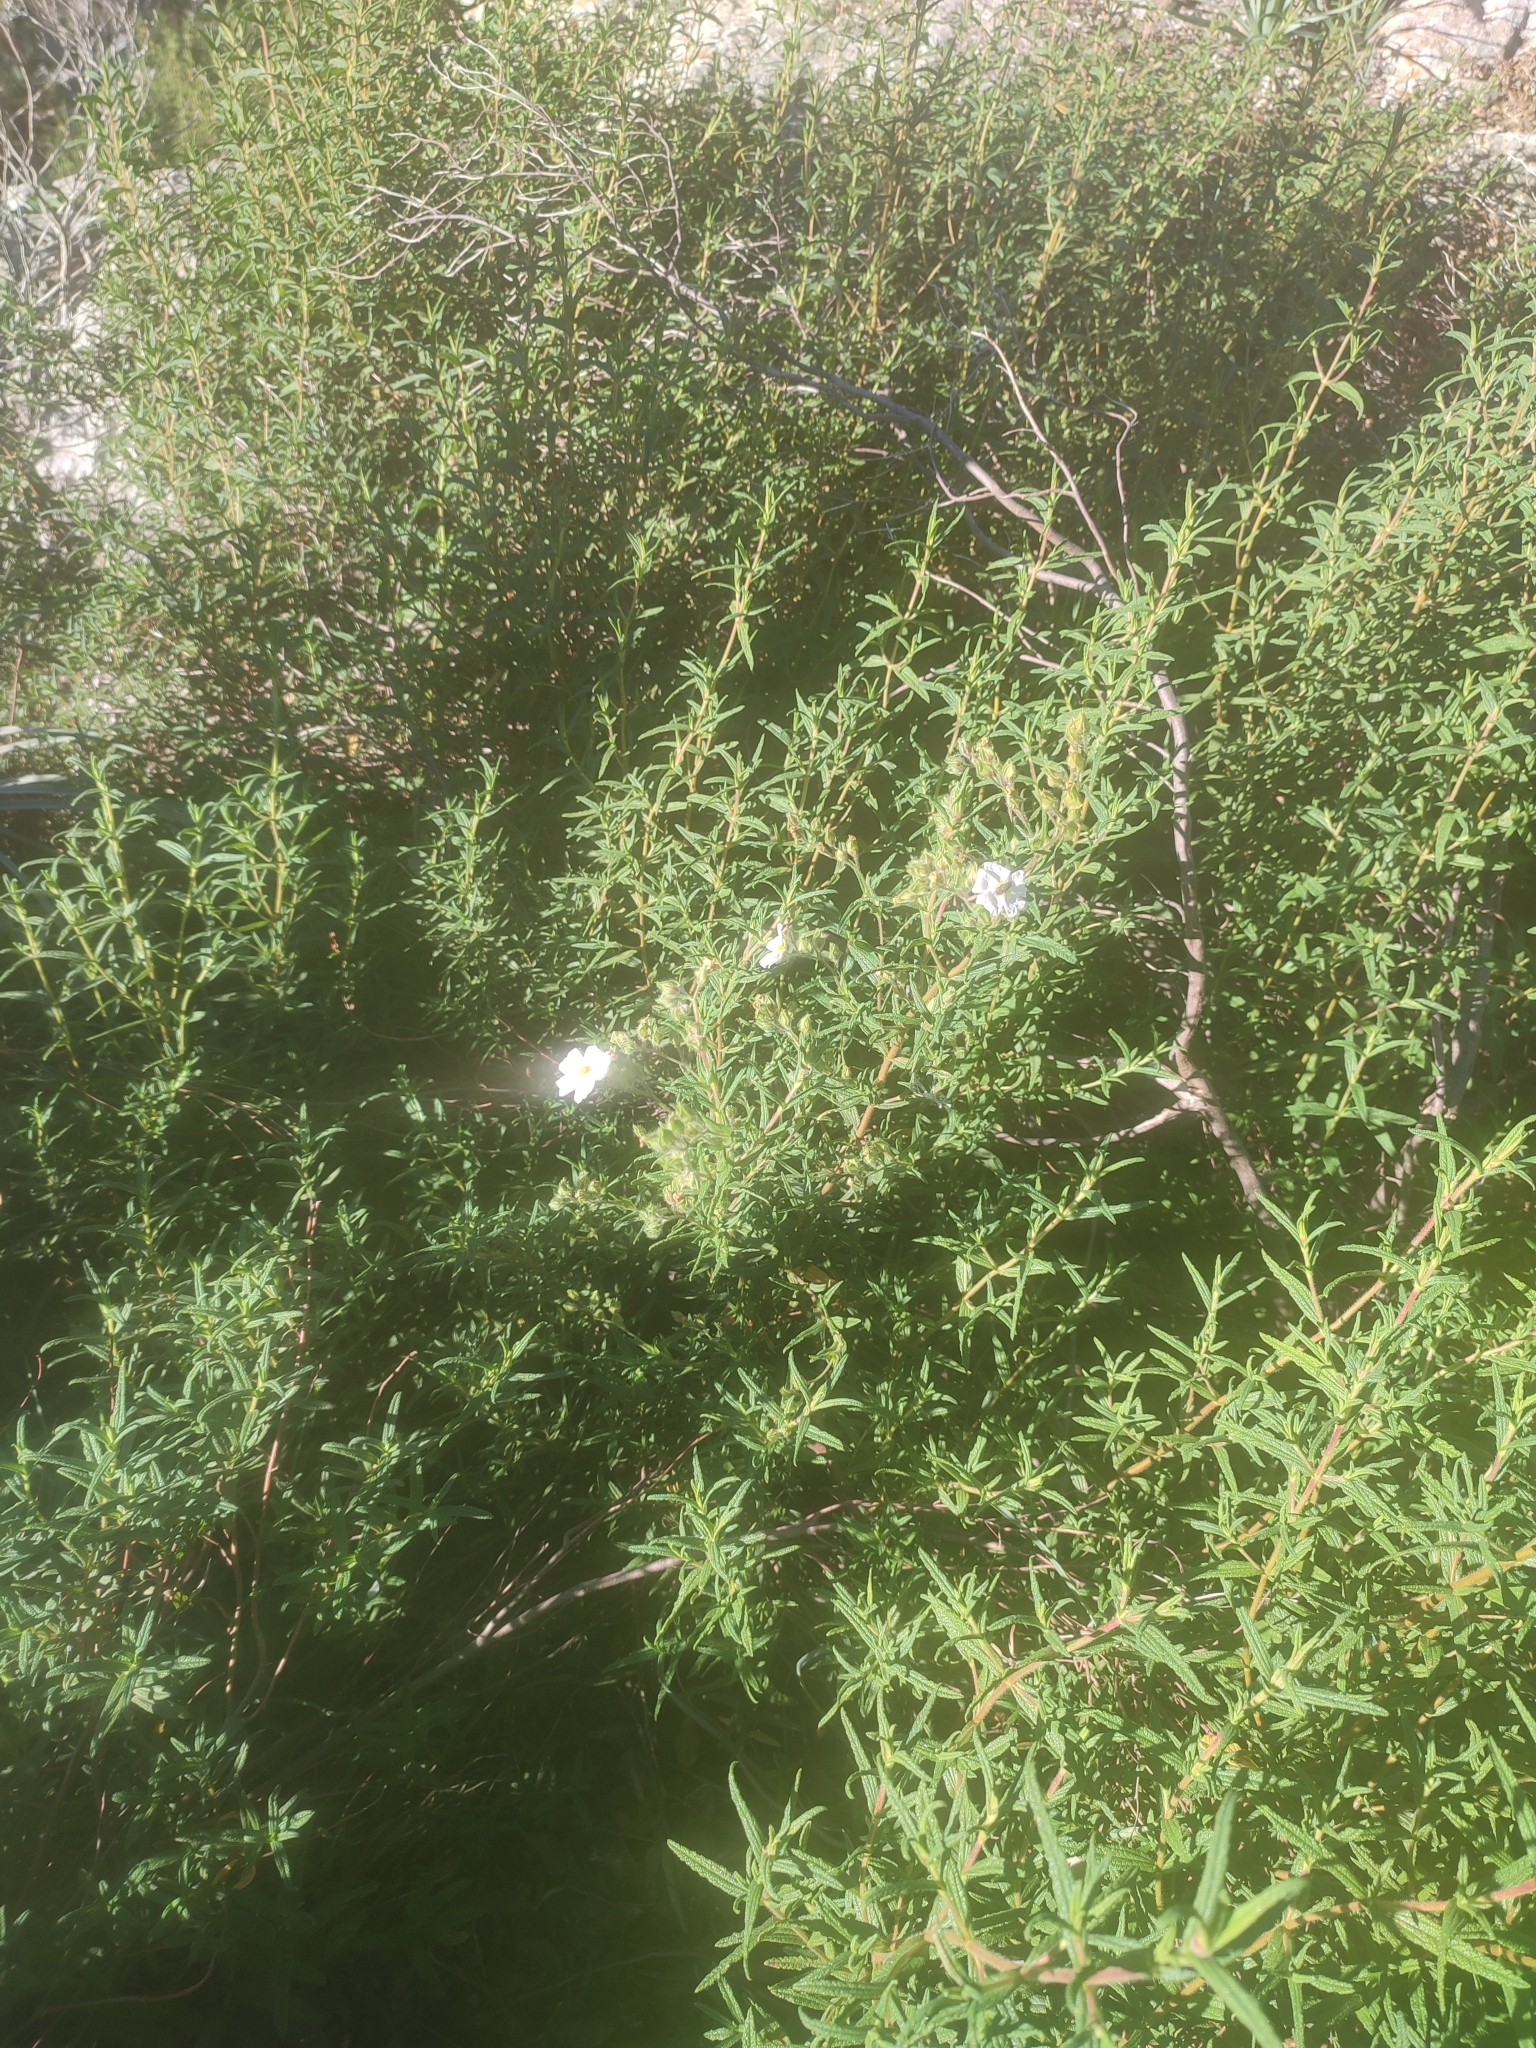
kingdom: Plantae
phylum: Tracheophyta
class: Magnoliopsida
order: Malvales
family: Cistaceae
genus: Cistus
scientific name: Cistus monspeliensis
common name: Montpelier cistus
